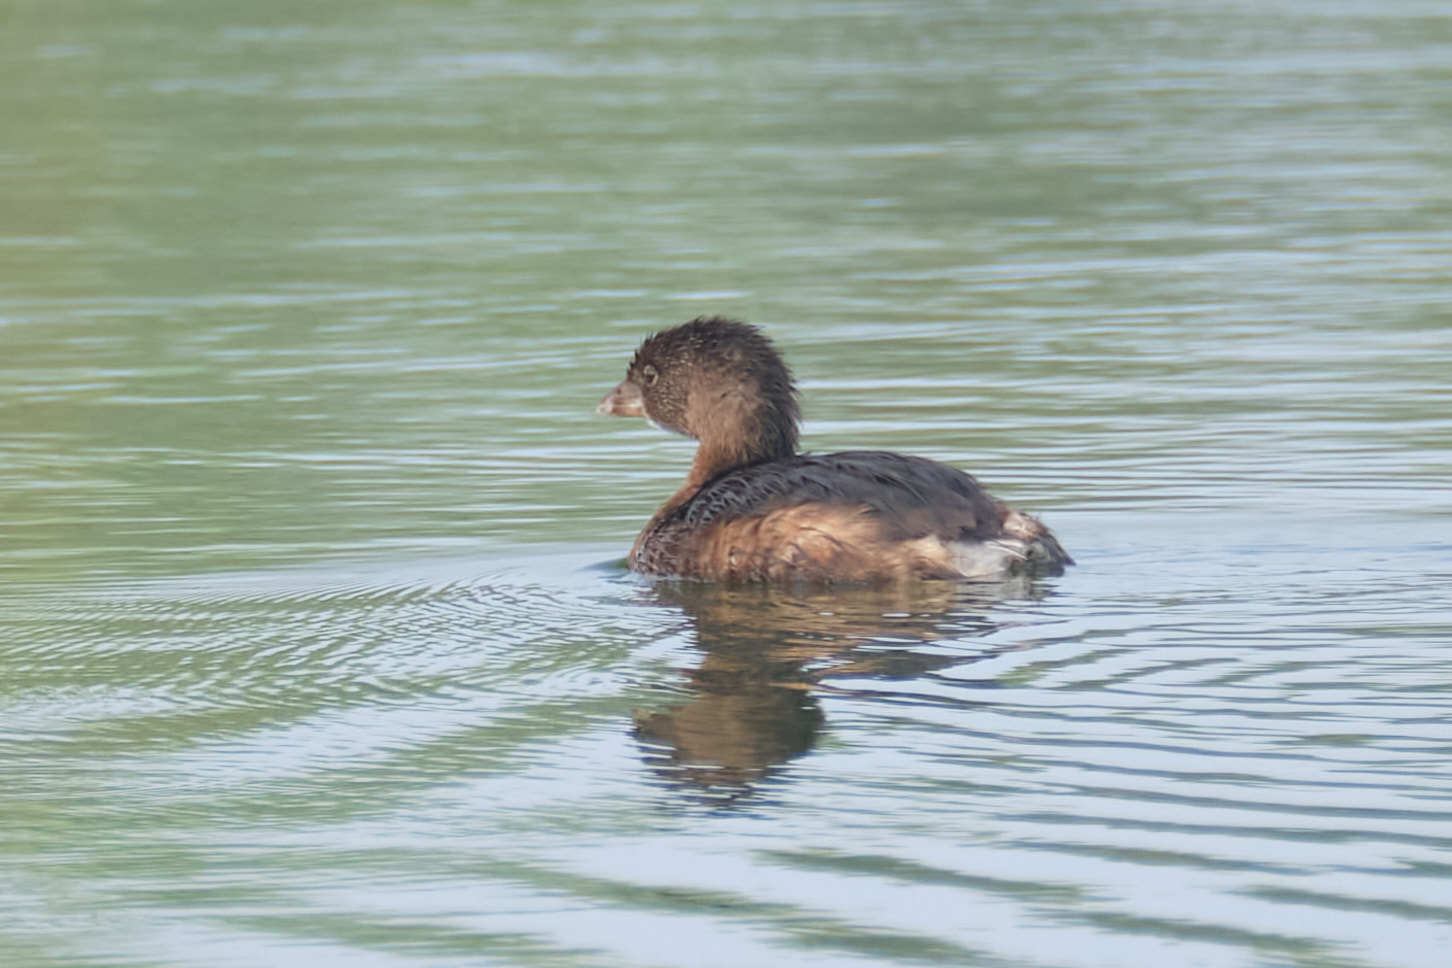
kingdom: Animalia
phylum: Chordata
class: Aves
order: Podicipediformes
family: Podicipedidae
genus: Podilymbus
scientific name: Podilymbus podiceps
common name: Pied-billed grebe
